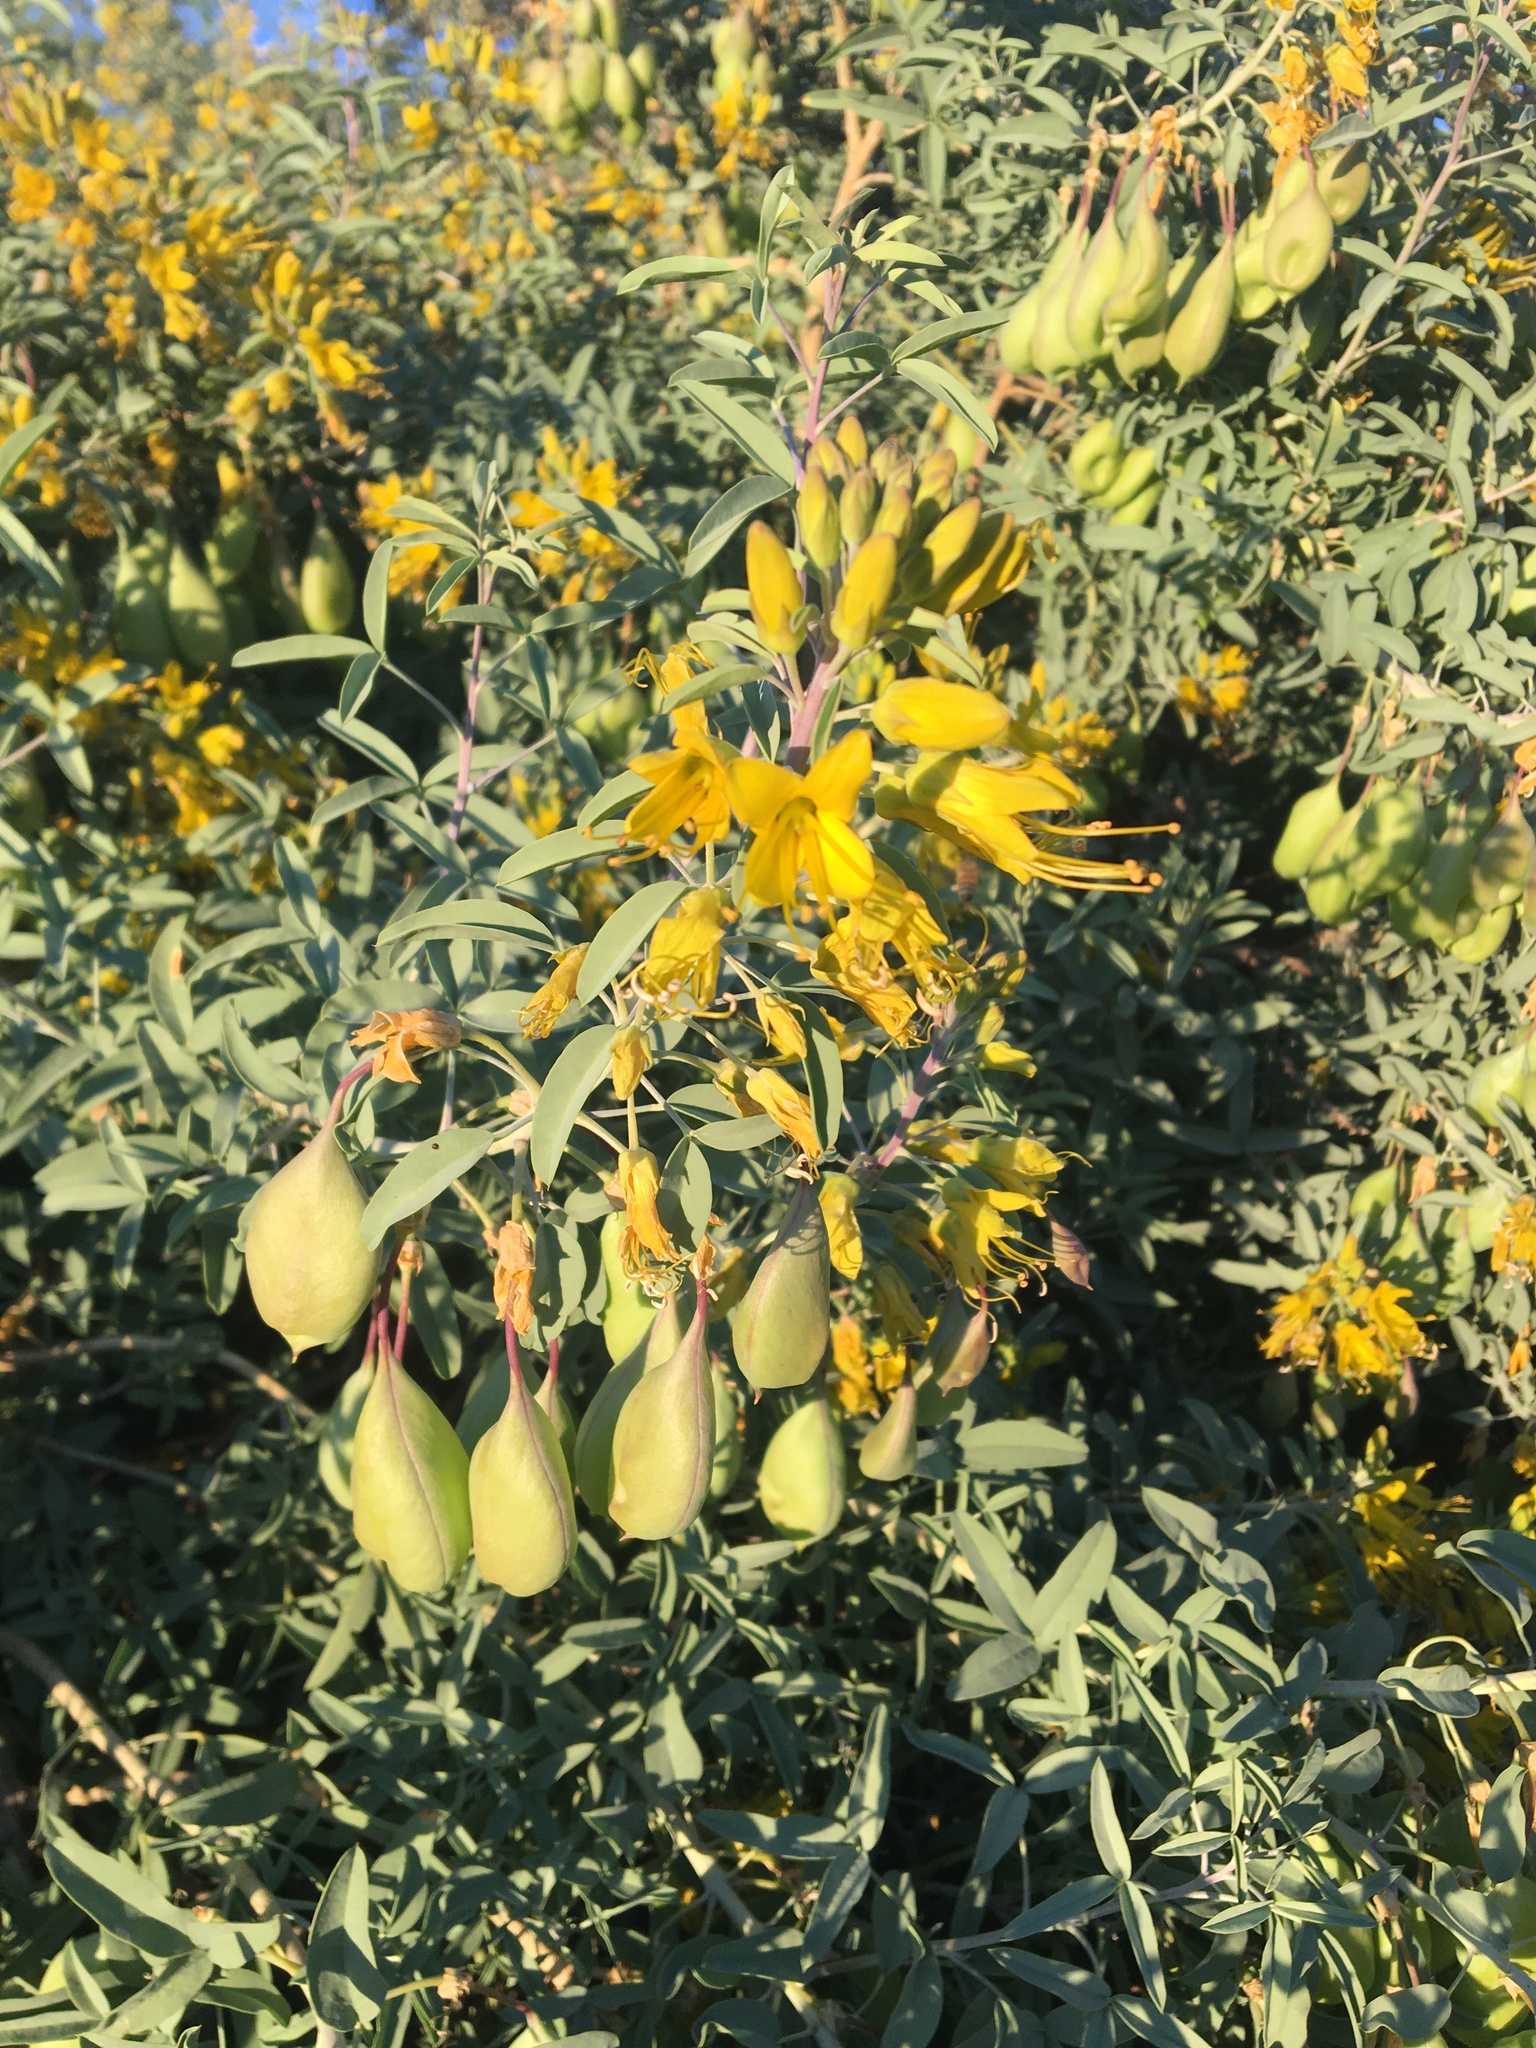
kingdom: Plantae
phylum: Tracheophyta
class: Magnoliopsida
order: Brassicales
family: Cleomaceae
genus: Cleomella
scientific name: Cleomella arborea
